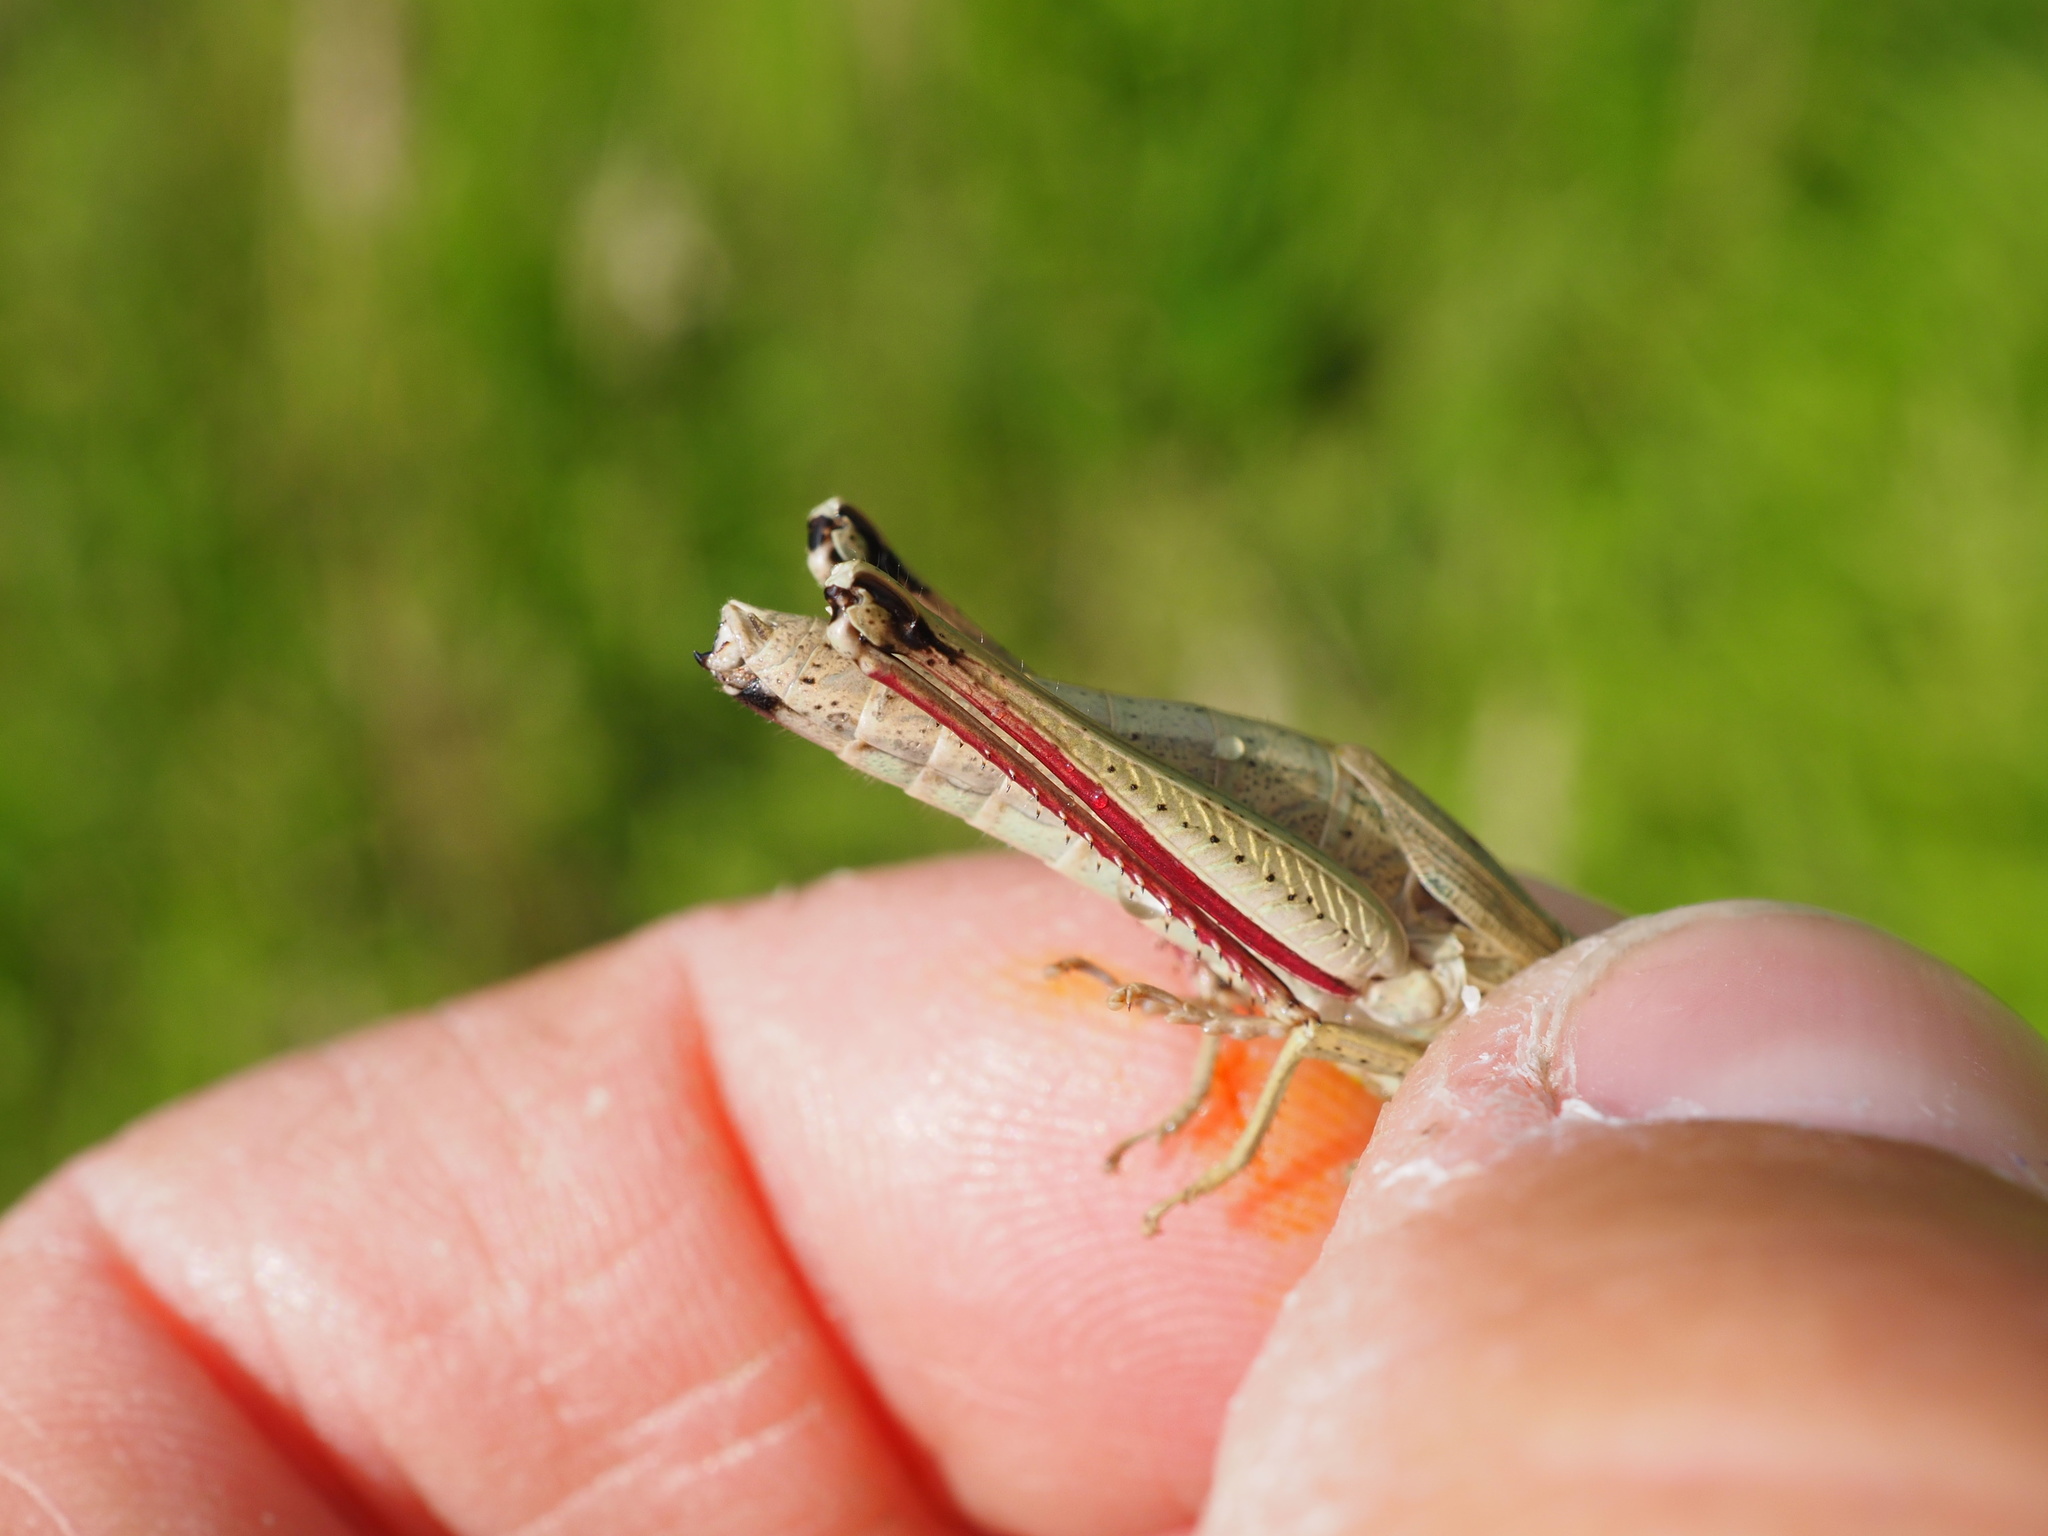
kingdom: Animalia
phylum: Arthropoda
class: Insecta
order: Orthoptera
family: Acrididae
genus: Chrysochraon
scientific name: Chrysochraon dispar
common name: Large gold grasshopper
